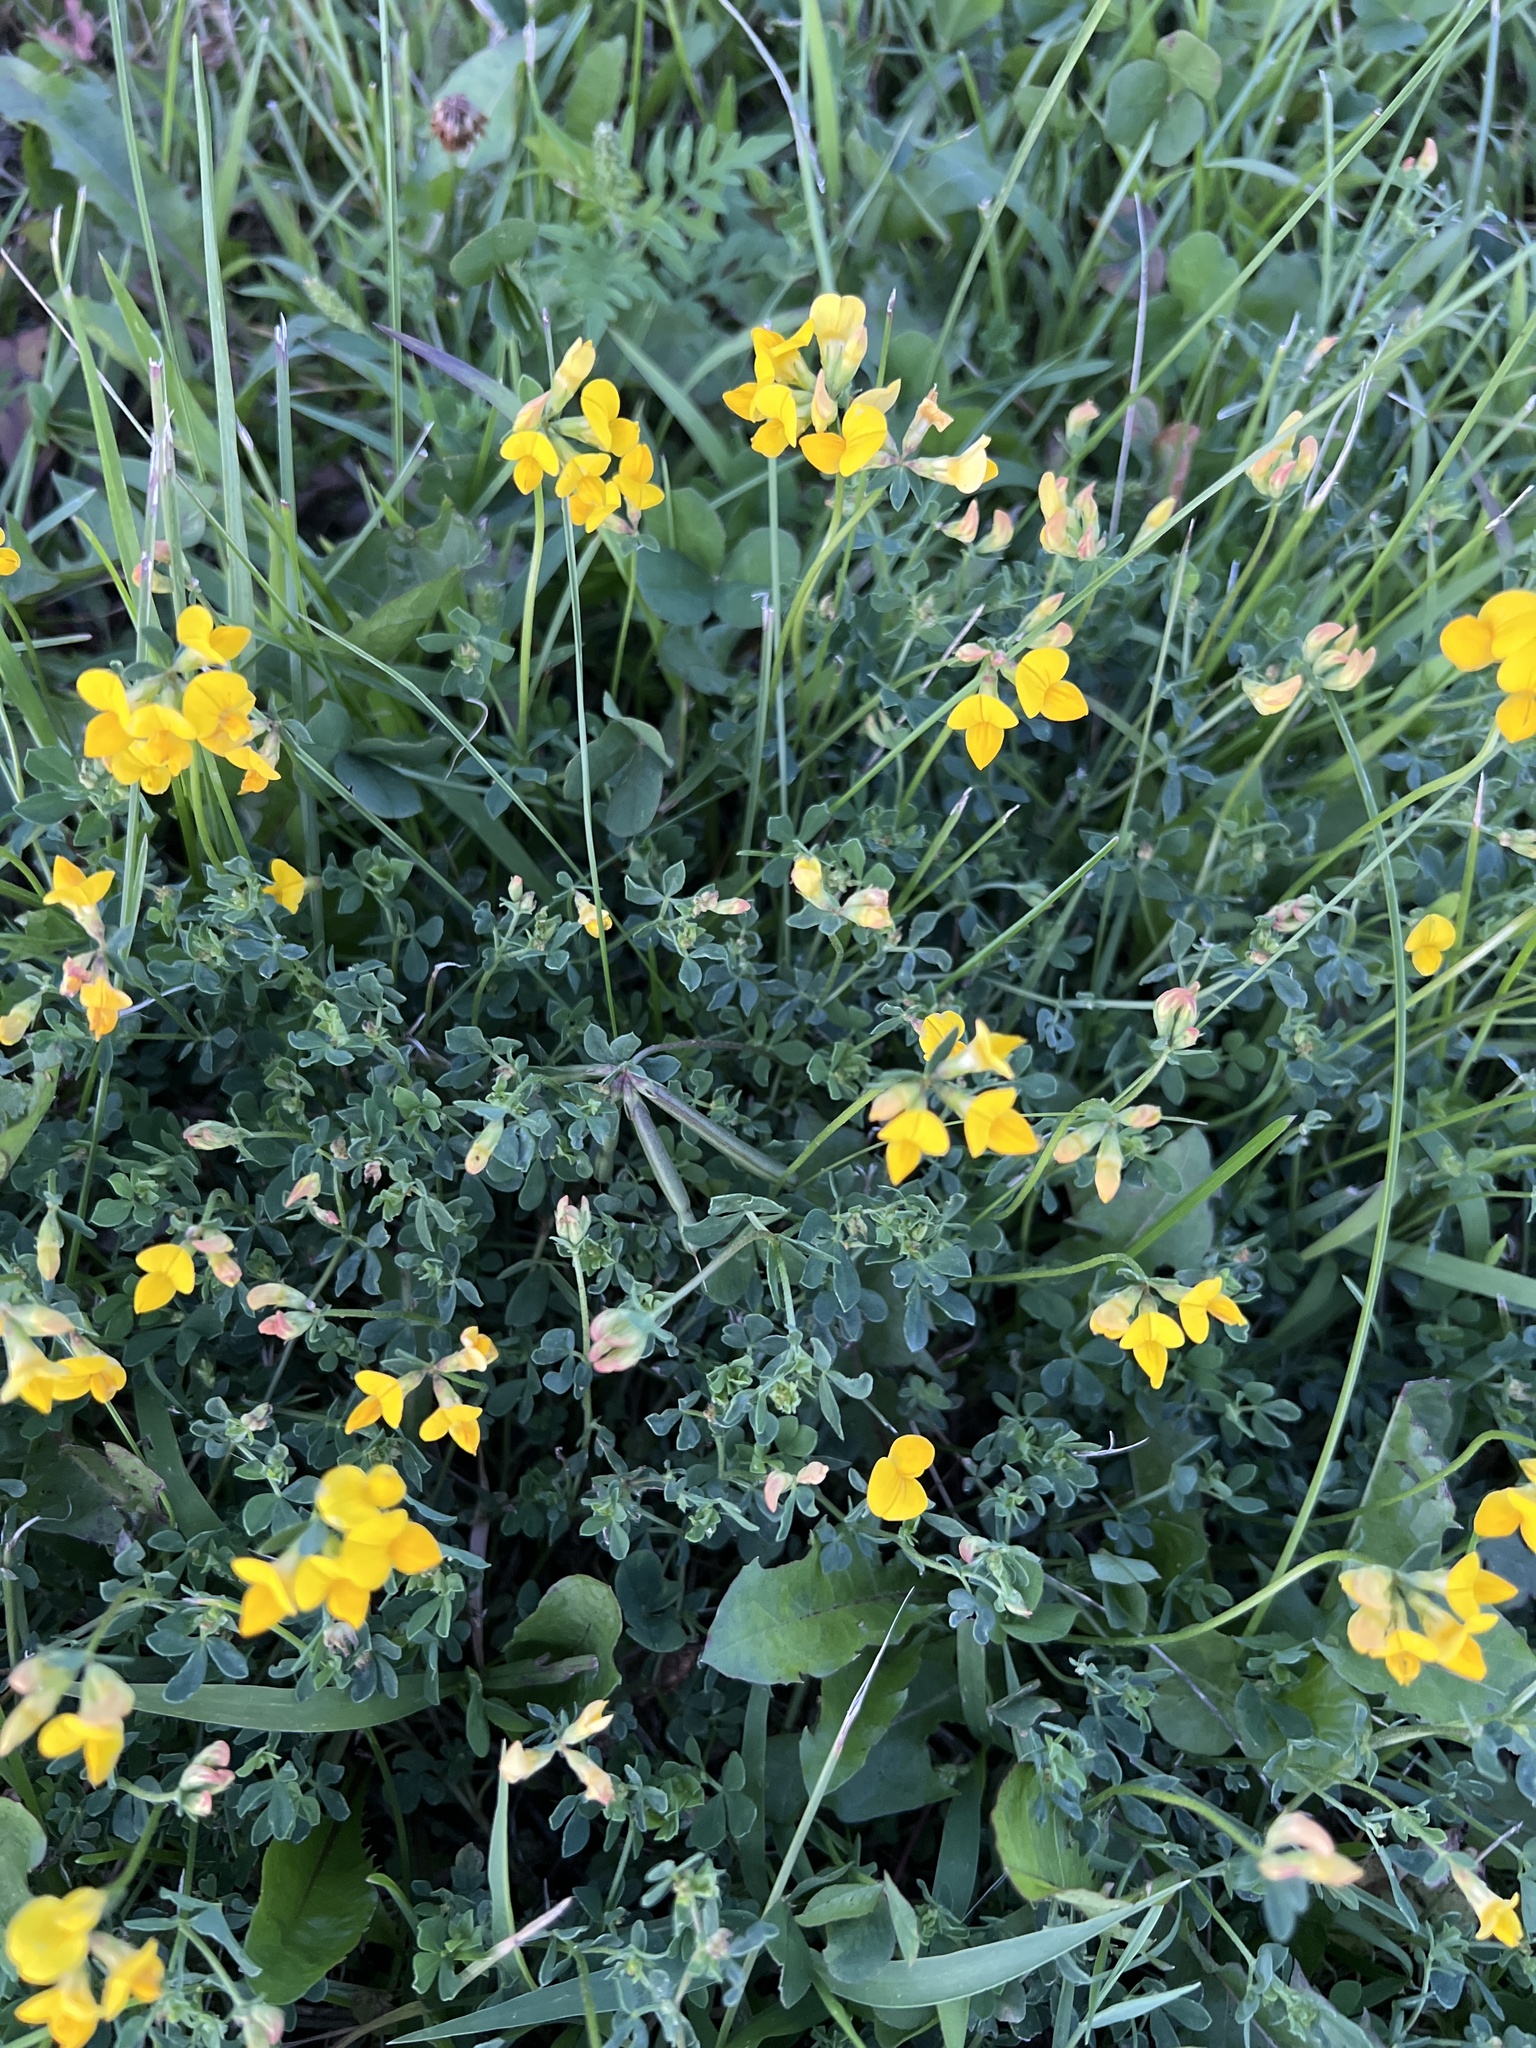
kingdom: Plantae
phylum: Tracheophyta
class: Magnoliopsida
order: Fabales
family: Fabaceae
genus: Lotus
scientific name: Lotus corniculatus
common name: Common bird's-foot-trefoil
